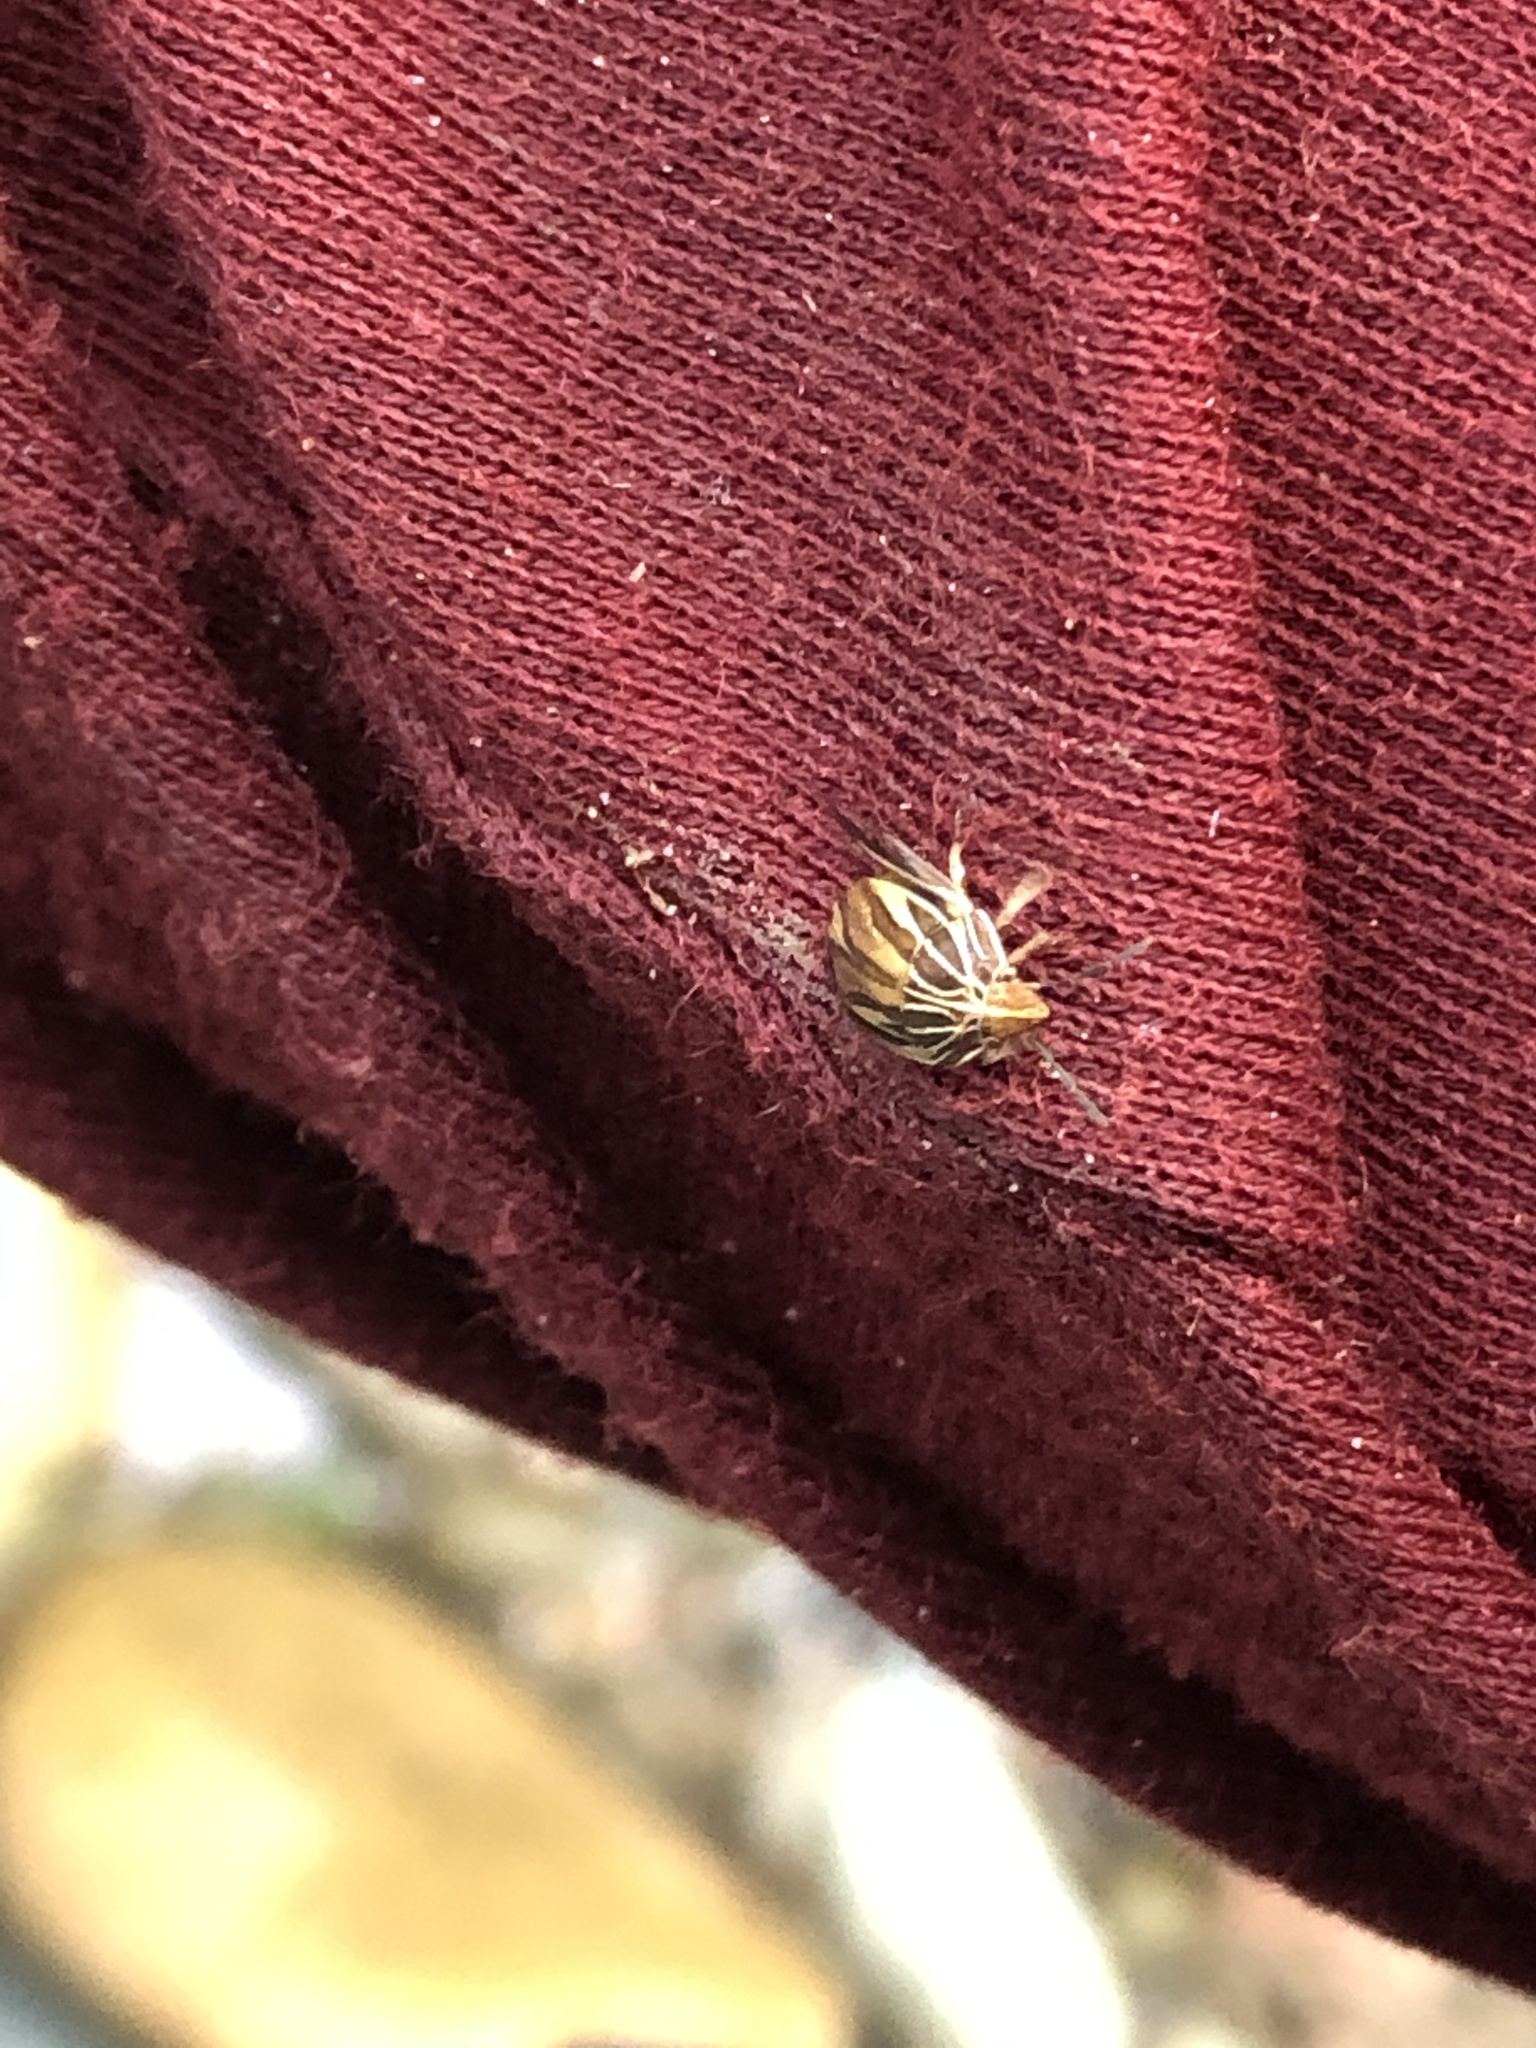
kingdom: Animalia
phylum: Arthropoda
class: Insecta
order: Hemiptera
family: Scutelleridae
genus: Symphylus
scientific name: Symphylus ramivitta
